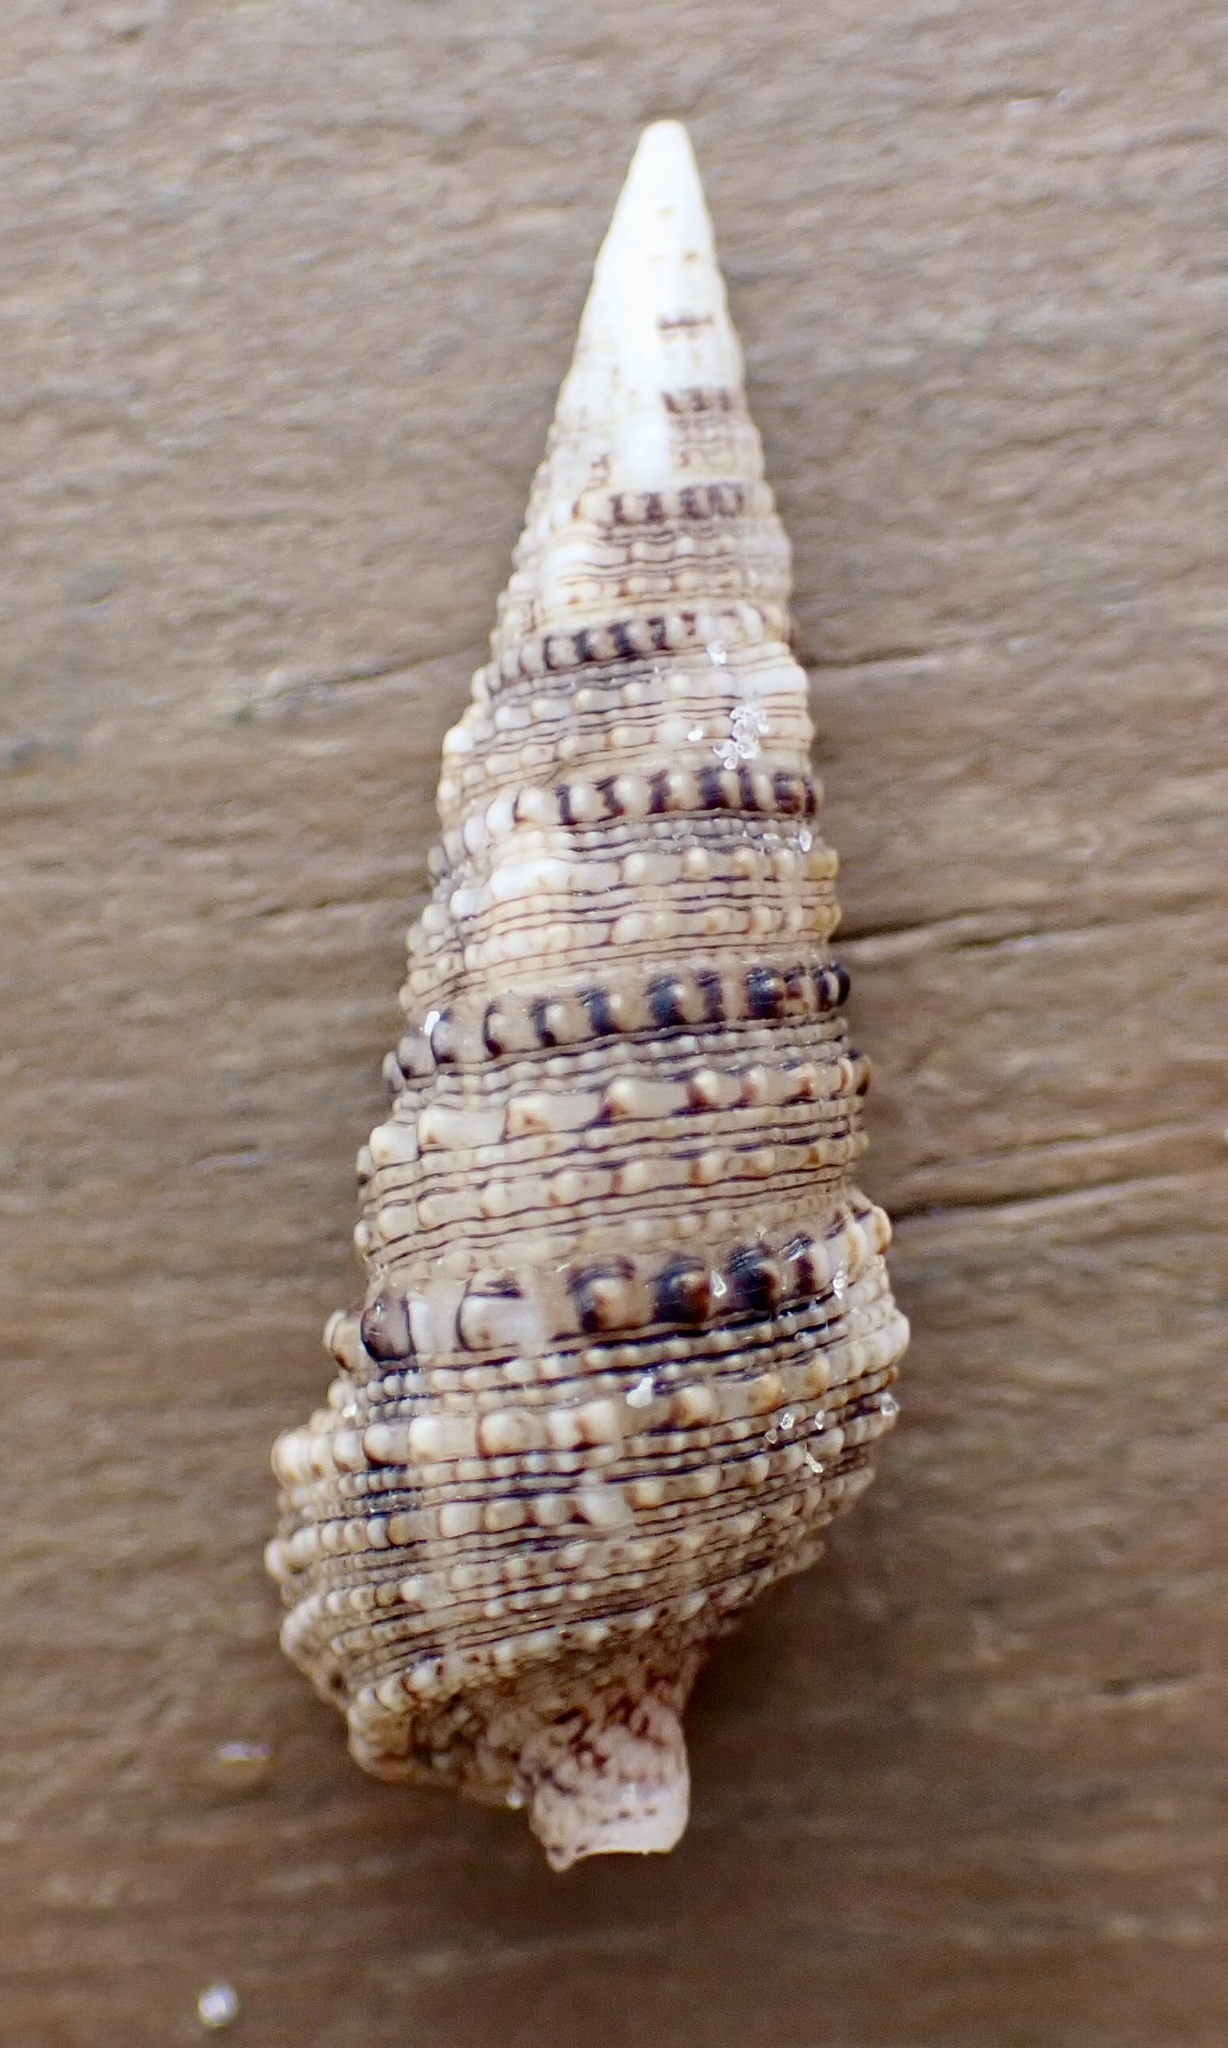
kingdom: Animalia
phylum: Mollusca
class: Gastropoda
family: Cerithiidae
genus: Cerithium
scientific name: Cerithium atratum
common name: Dark cerith
